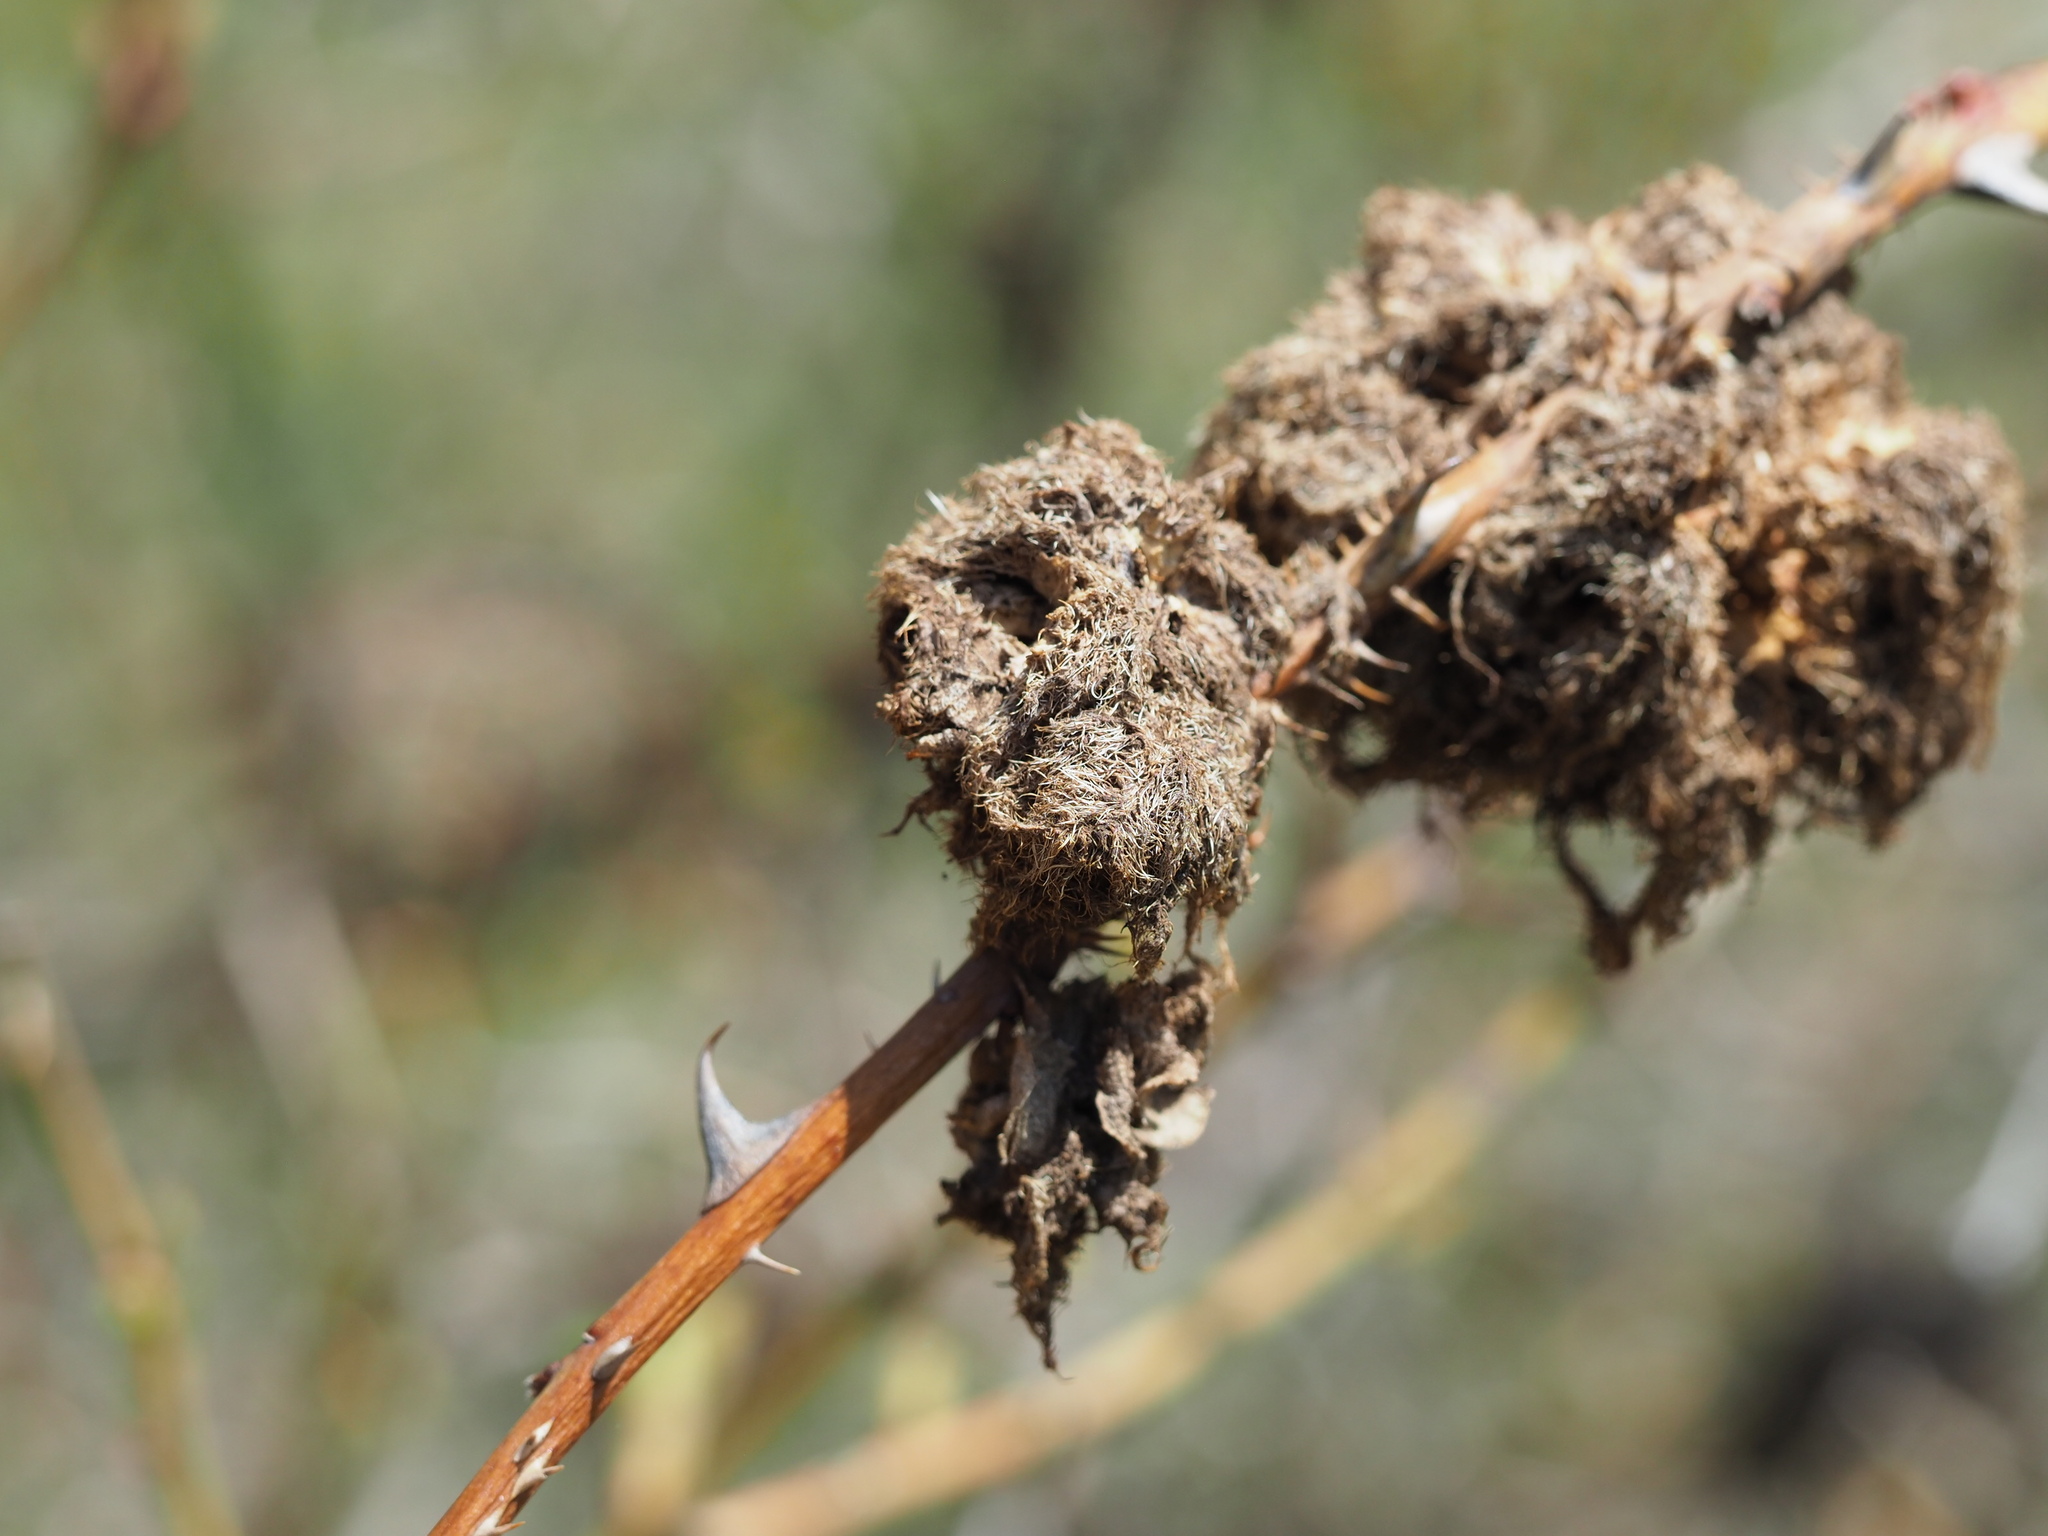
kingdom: Animalia
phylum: Arthropoda
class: Insecta
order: Hymenoptera
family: Cynipidae
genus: Diplolepis
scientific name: Diplolepis rosae
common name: Bedeguar gall
